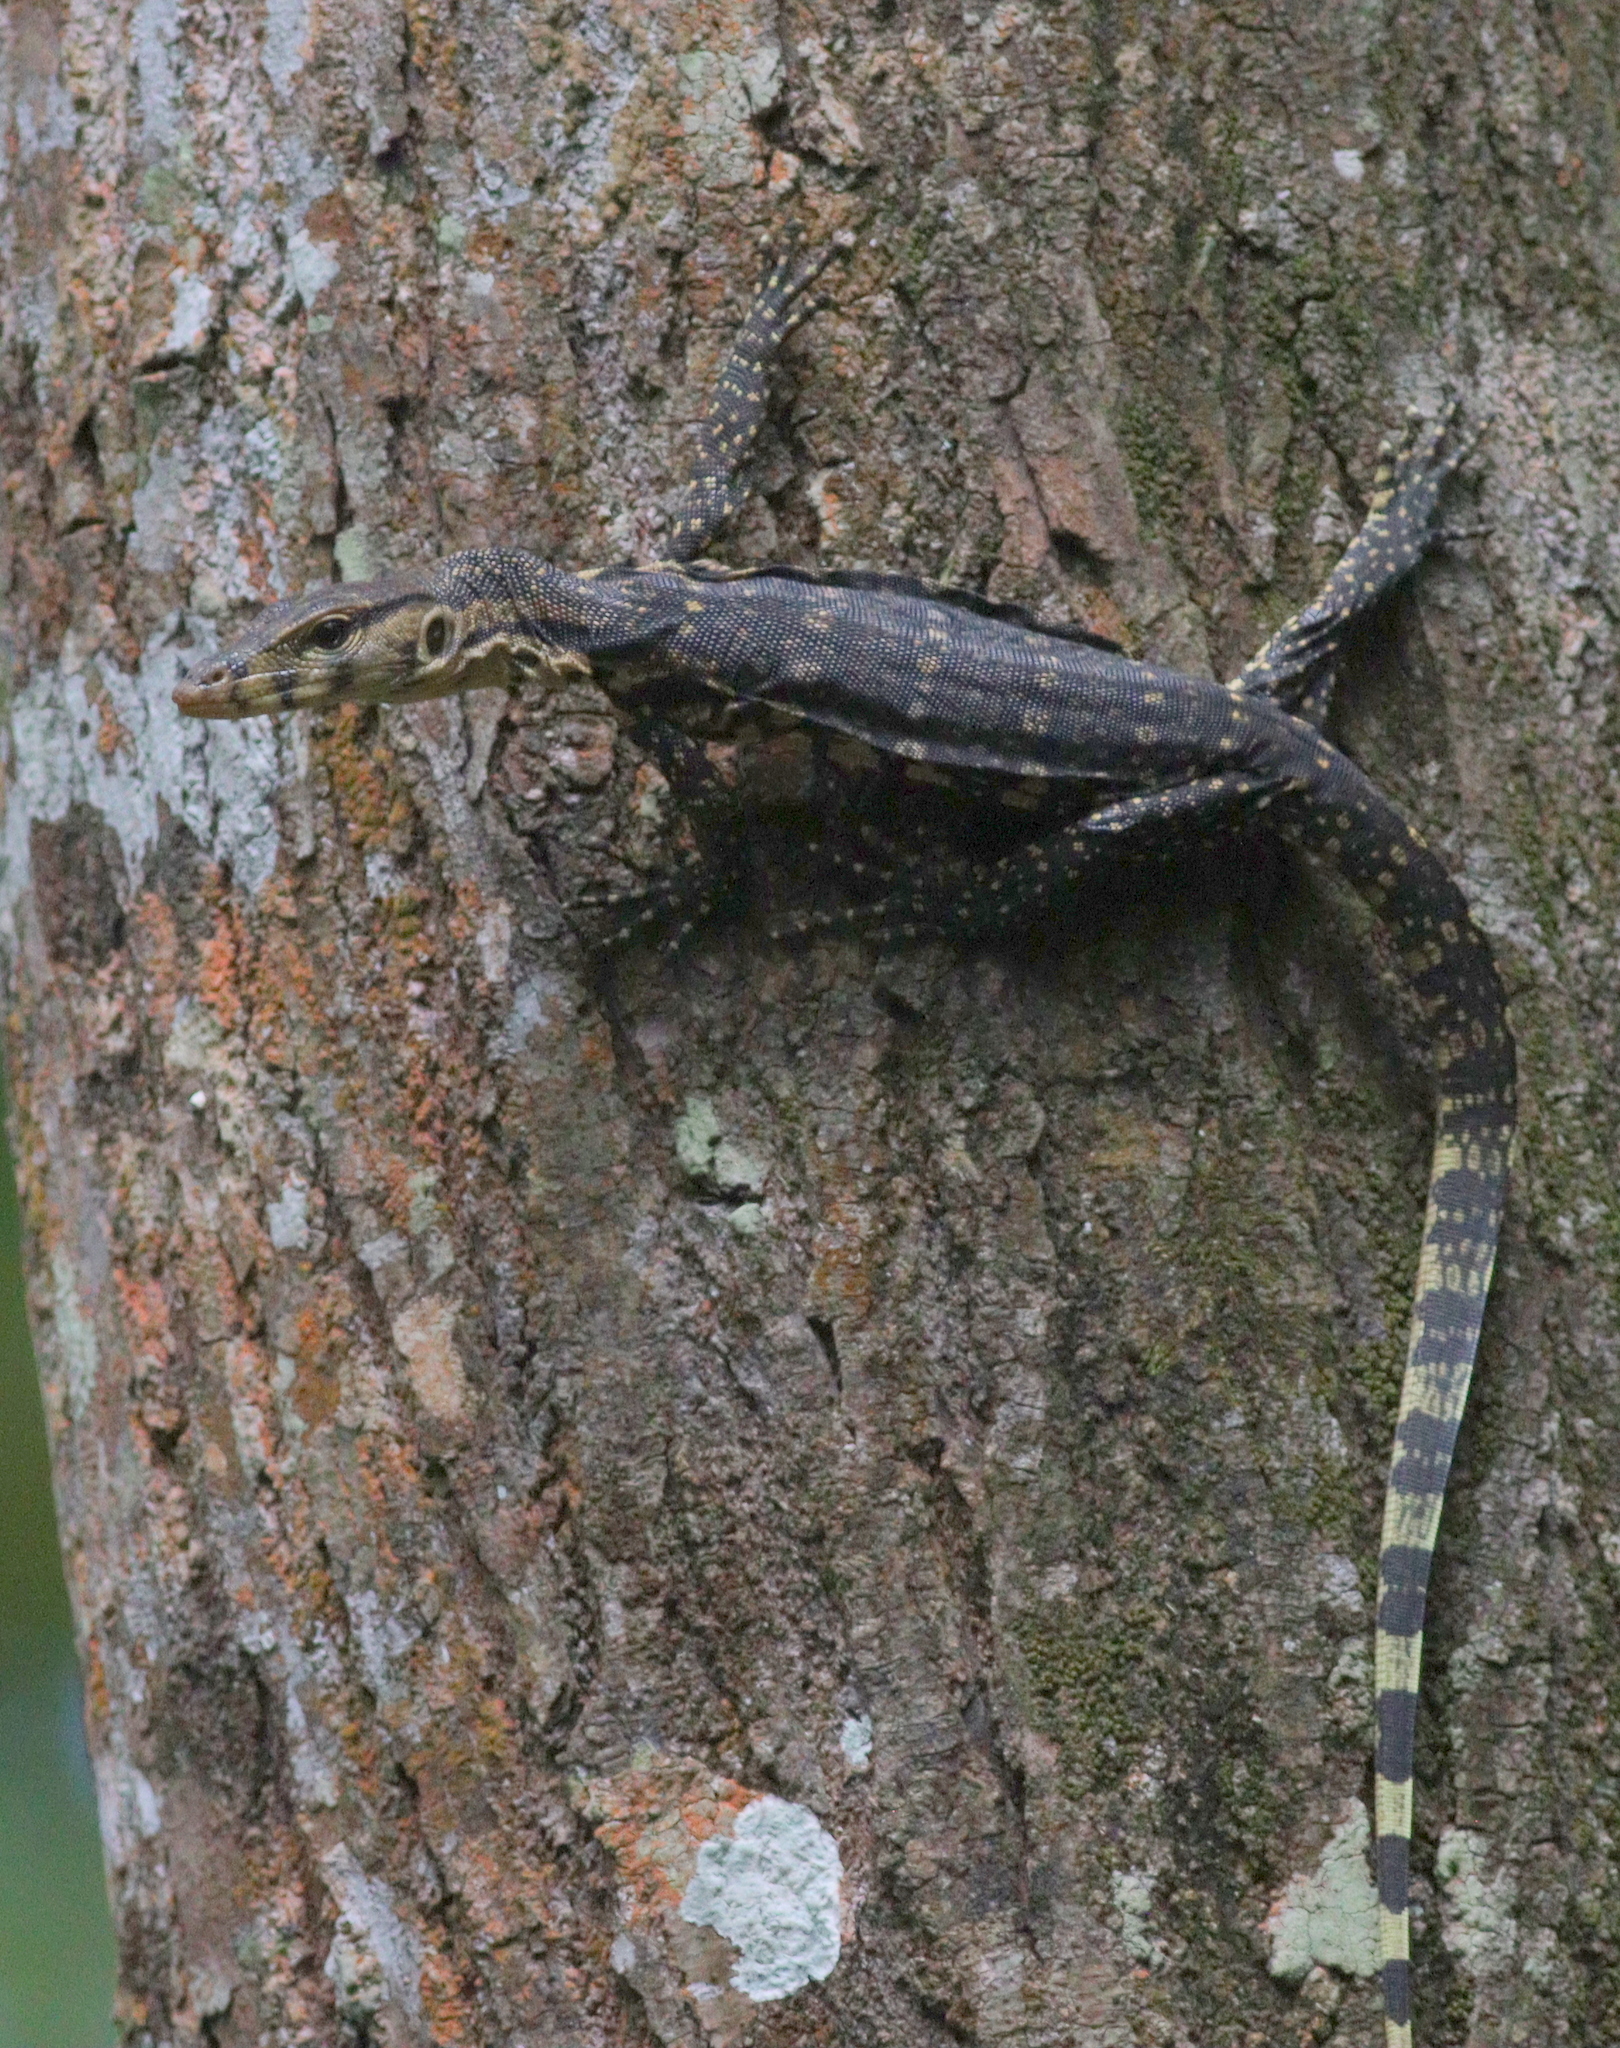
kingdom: Animalia
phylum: Chordata
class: Squamata
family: Varanidae
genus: Varanus
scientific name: Varanus salvator
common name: Common water monitor
